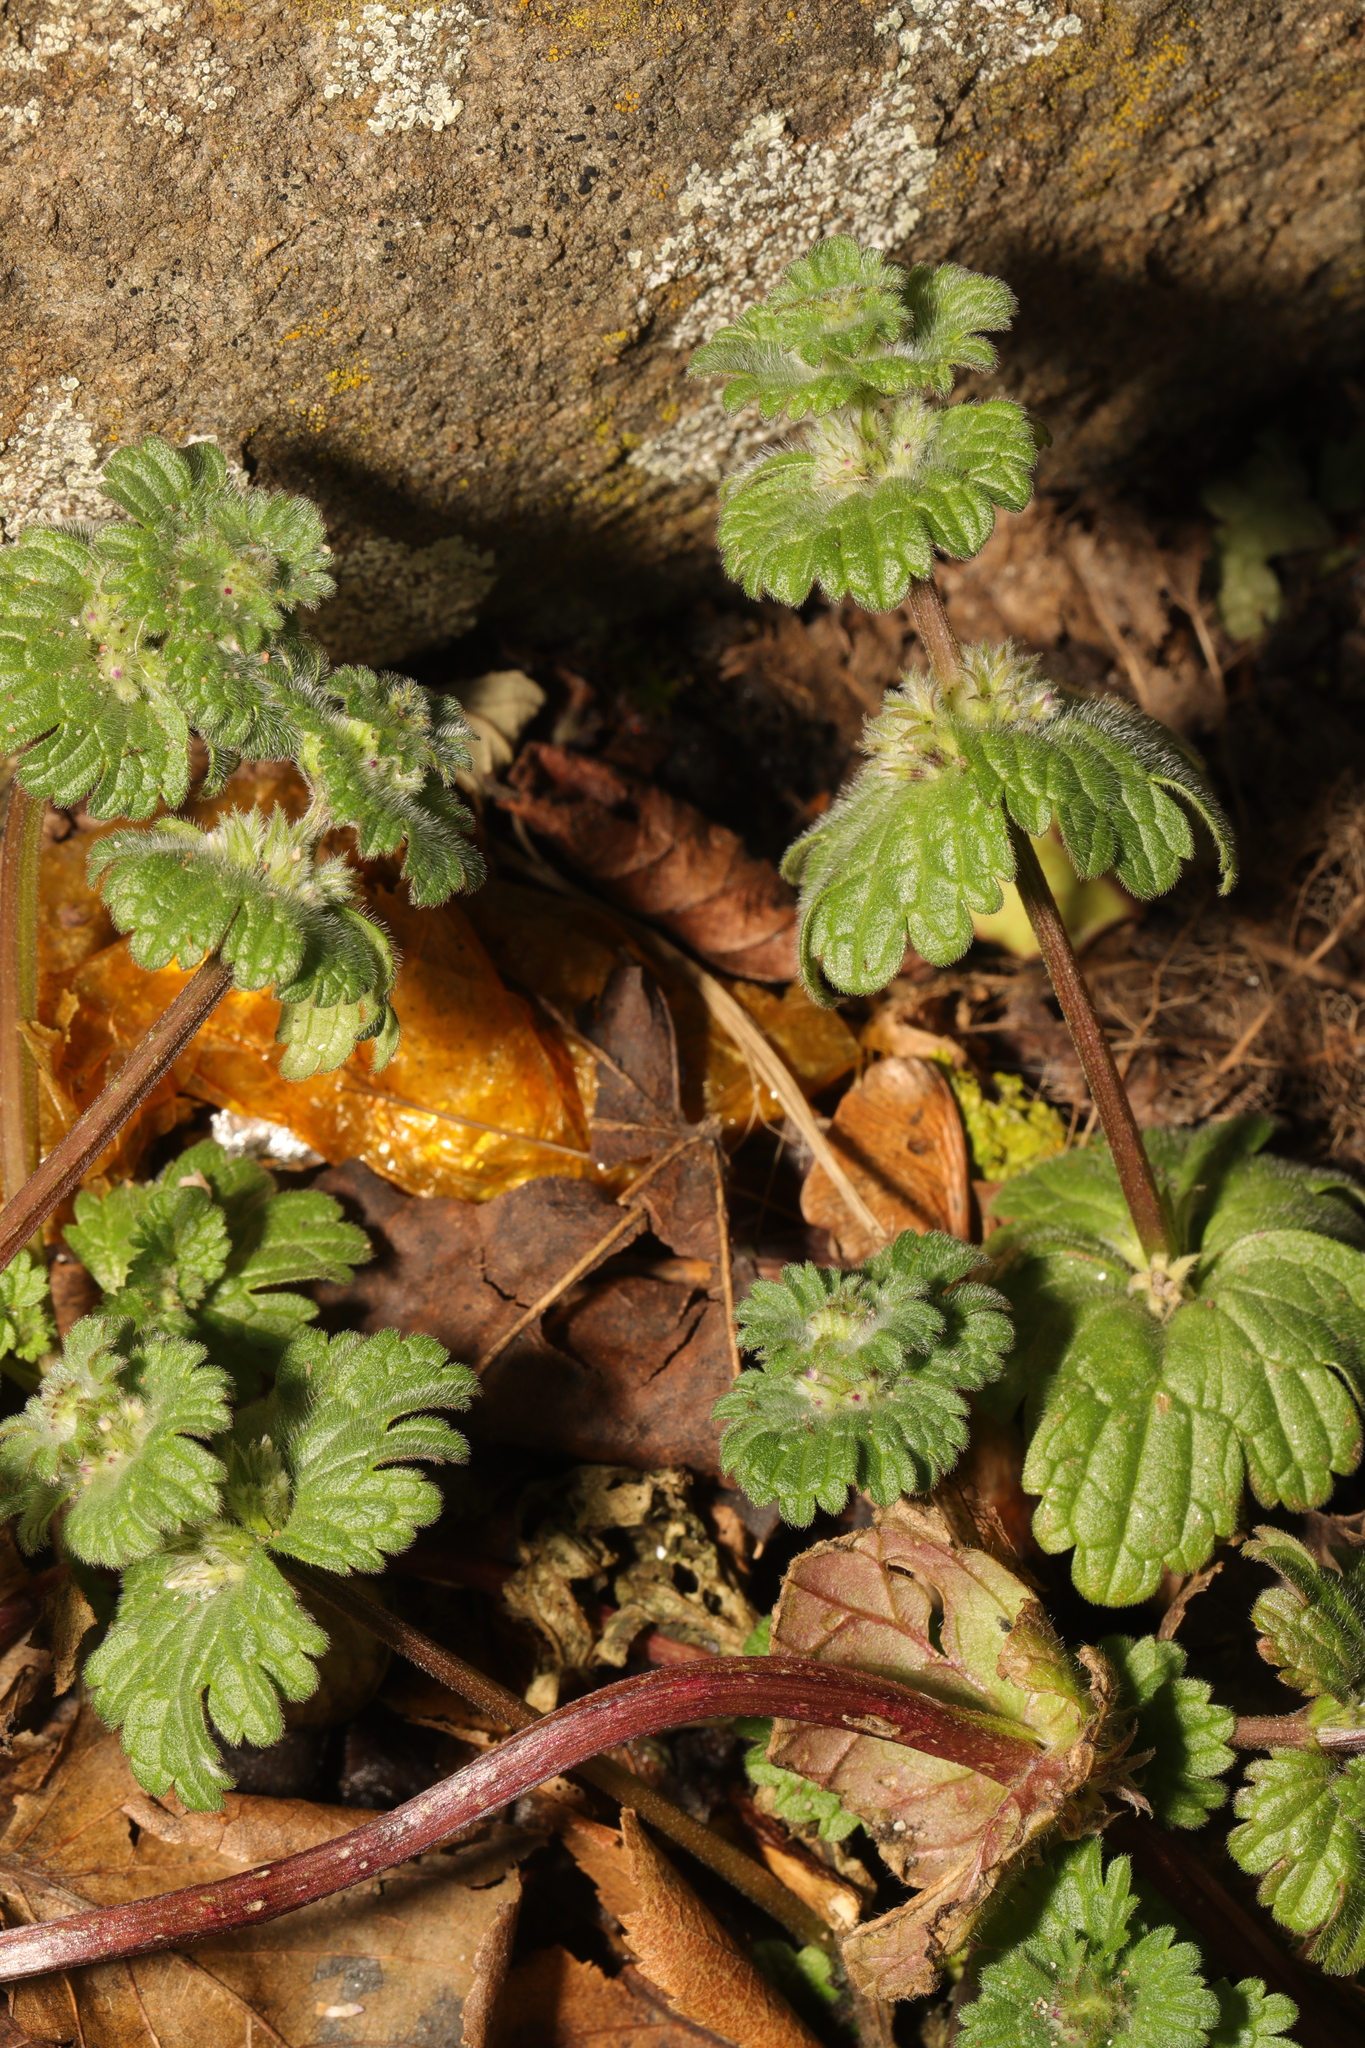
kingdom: Plantae
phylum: Tracheophyta
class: Magnoliopsida
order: Lamiales
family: Lamiaceae
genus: Lamium
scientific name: Lamium amplexicaule
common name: Henbit dead-nettle
